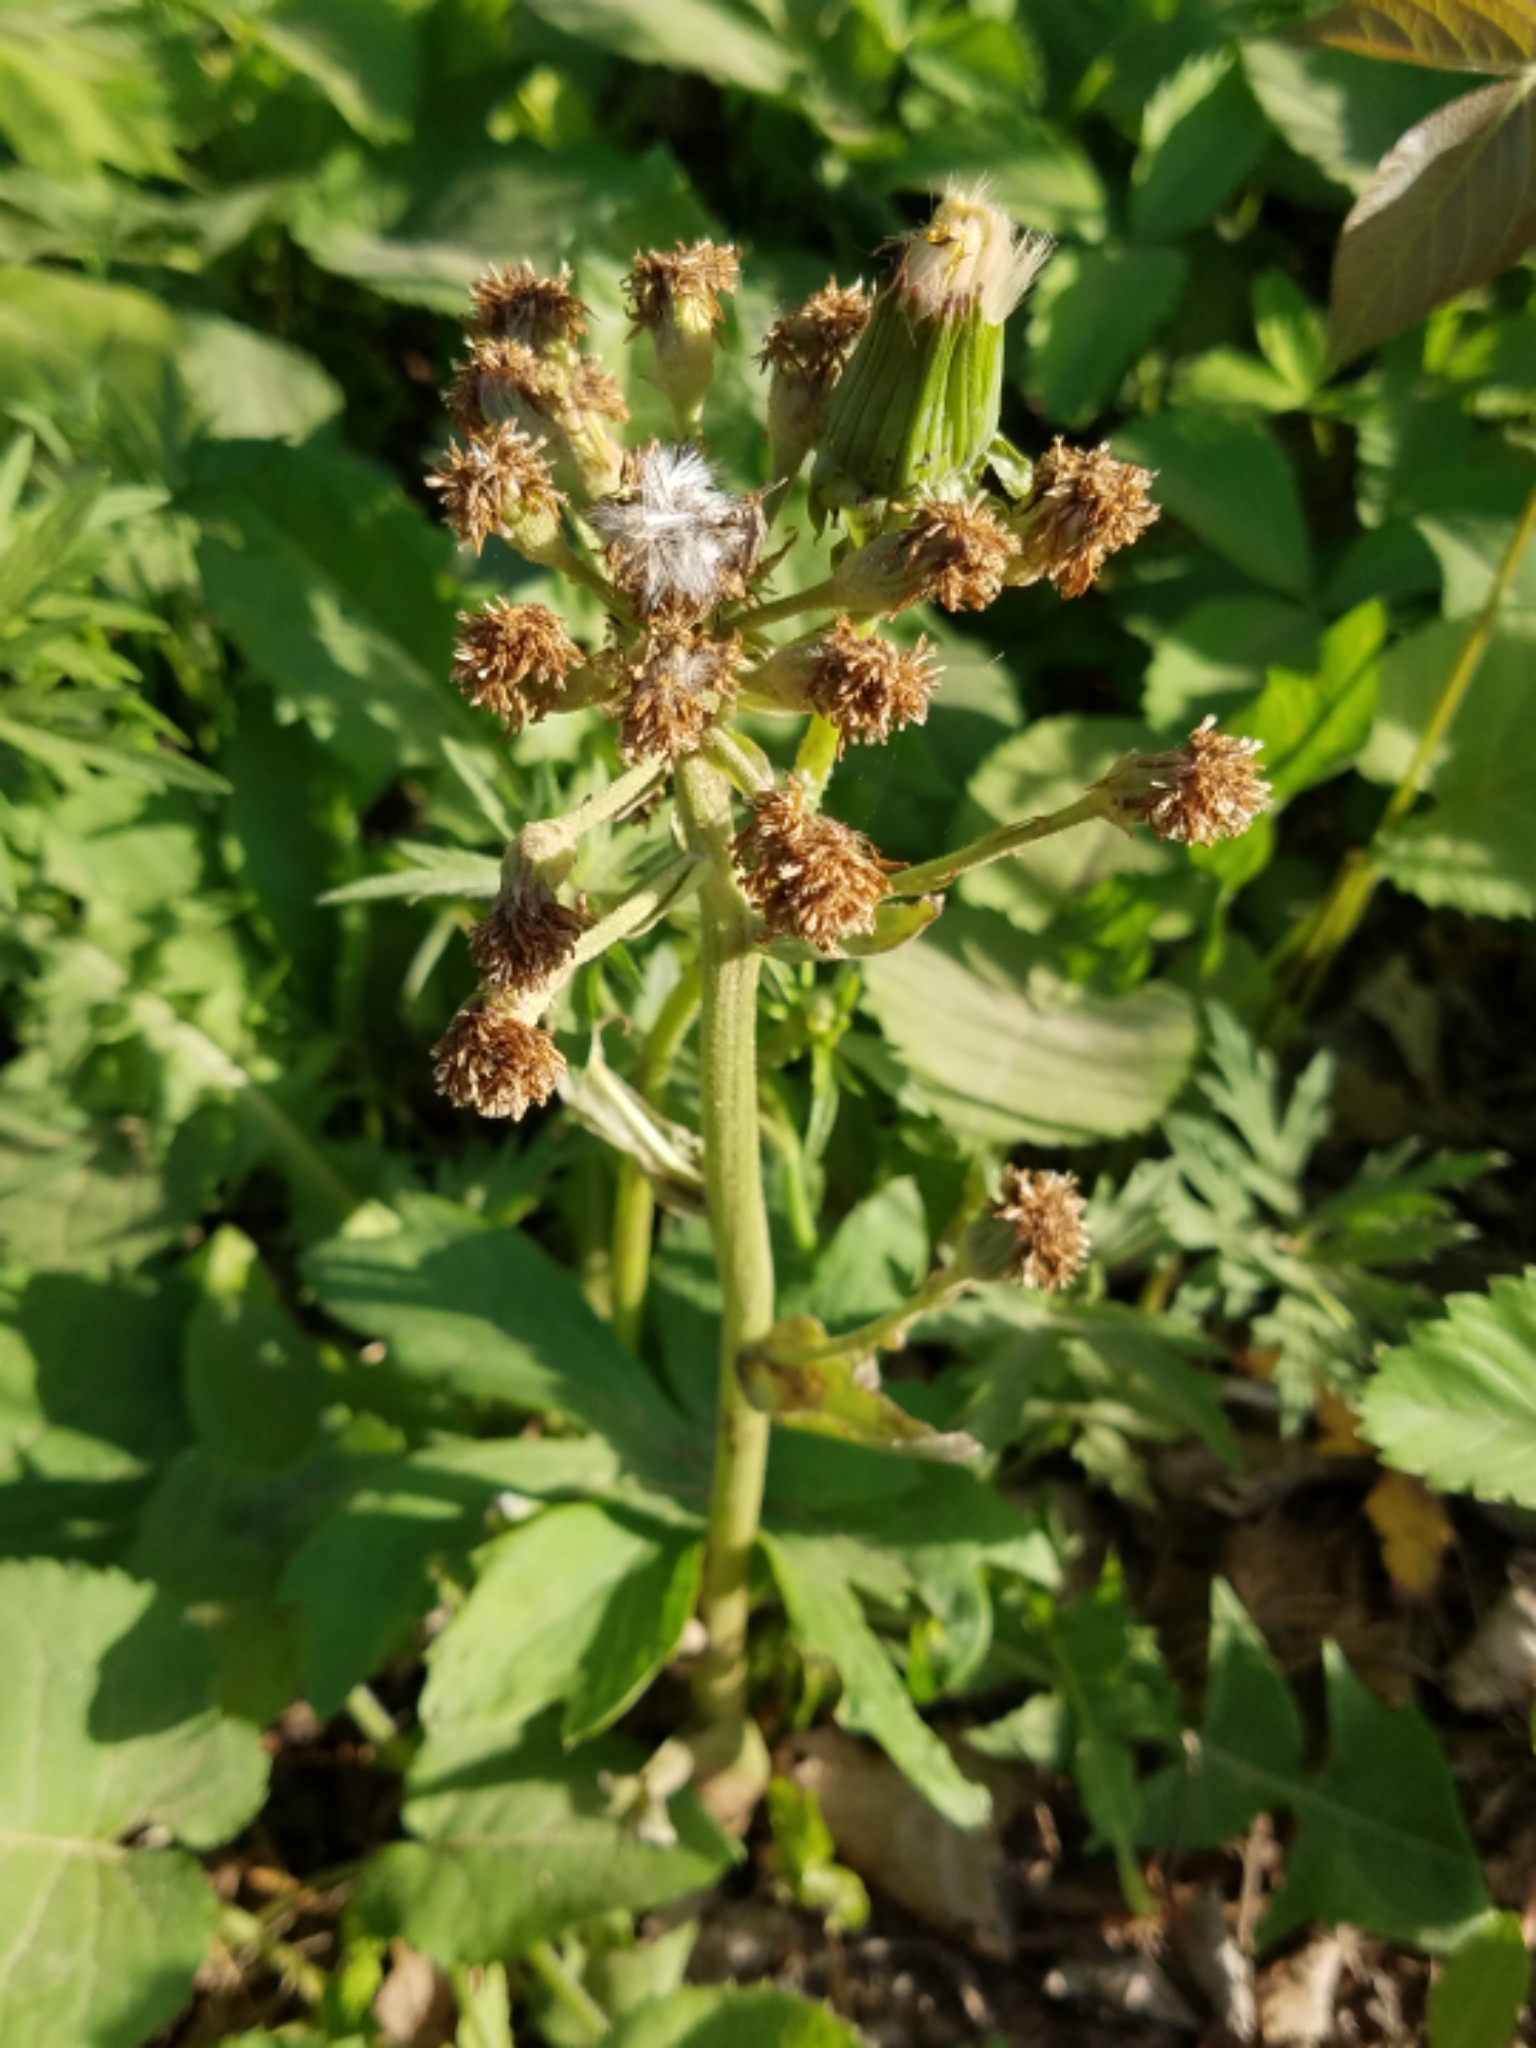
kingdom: Plantae
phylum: Tracheophyta
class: Magnoliopsida
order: Asterales
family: Asteraceae
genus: Petasites
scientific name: Petasites frigidus
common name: Arctic butterbur
